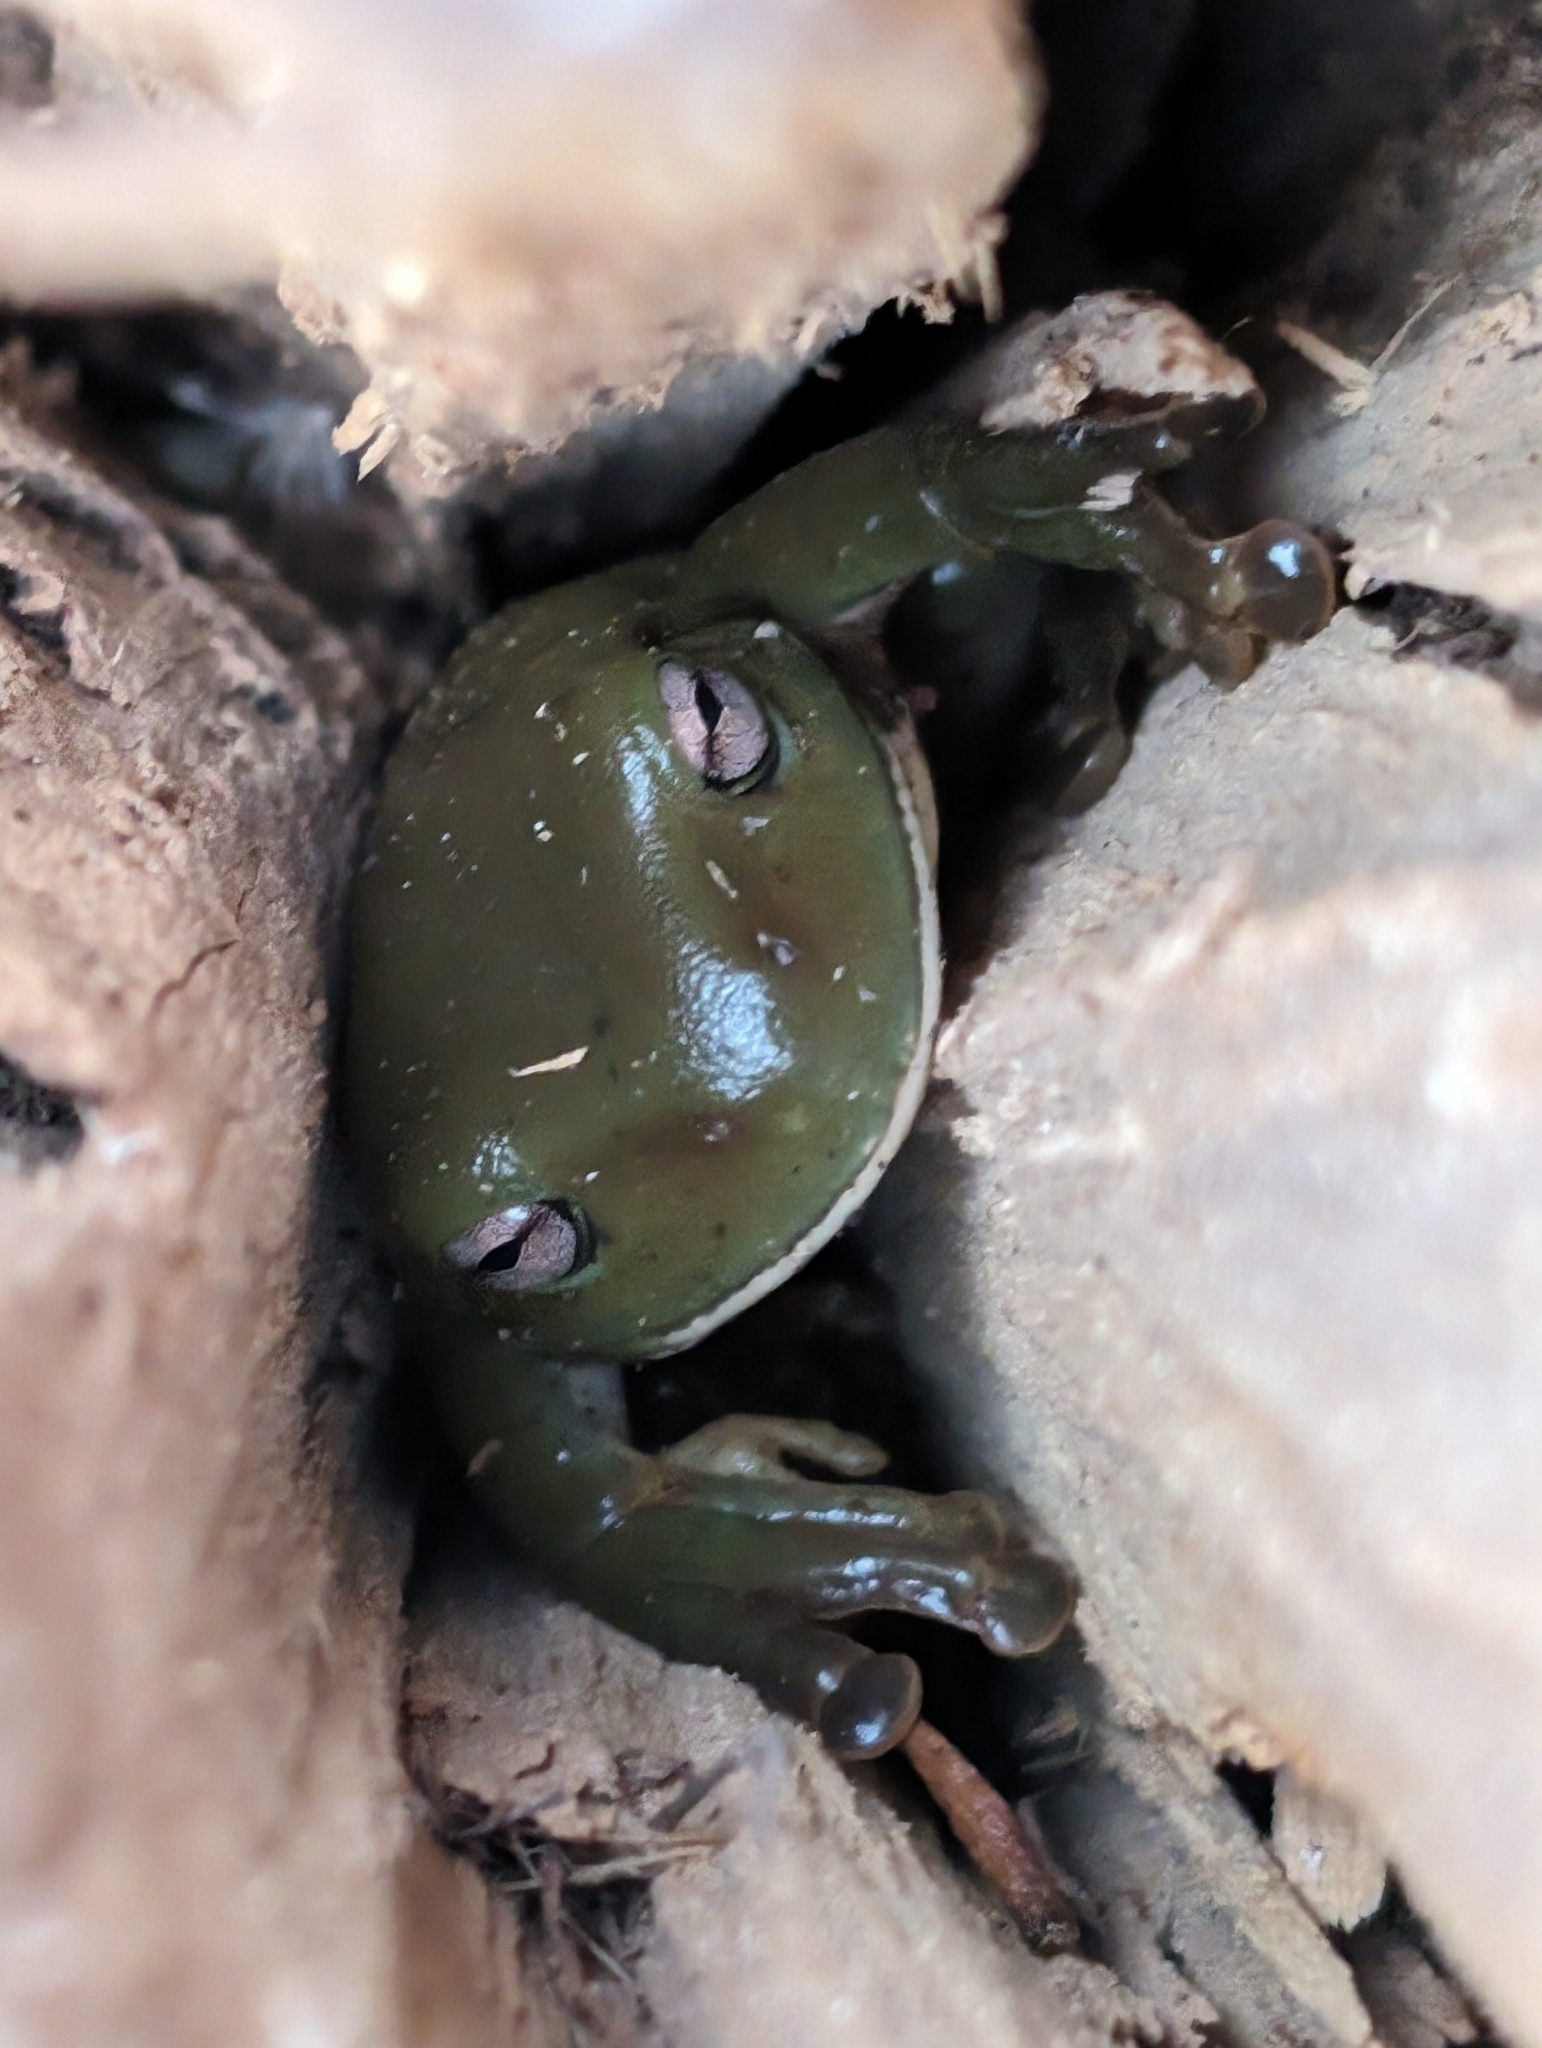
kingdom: Animalia
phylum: Chordata
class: Amphibia
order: Anura
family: Pelodryadidae
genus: Ranoidea
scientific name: Ranoidea caerulea
